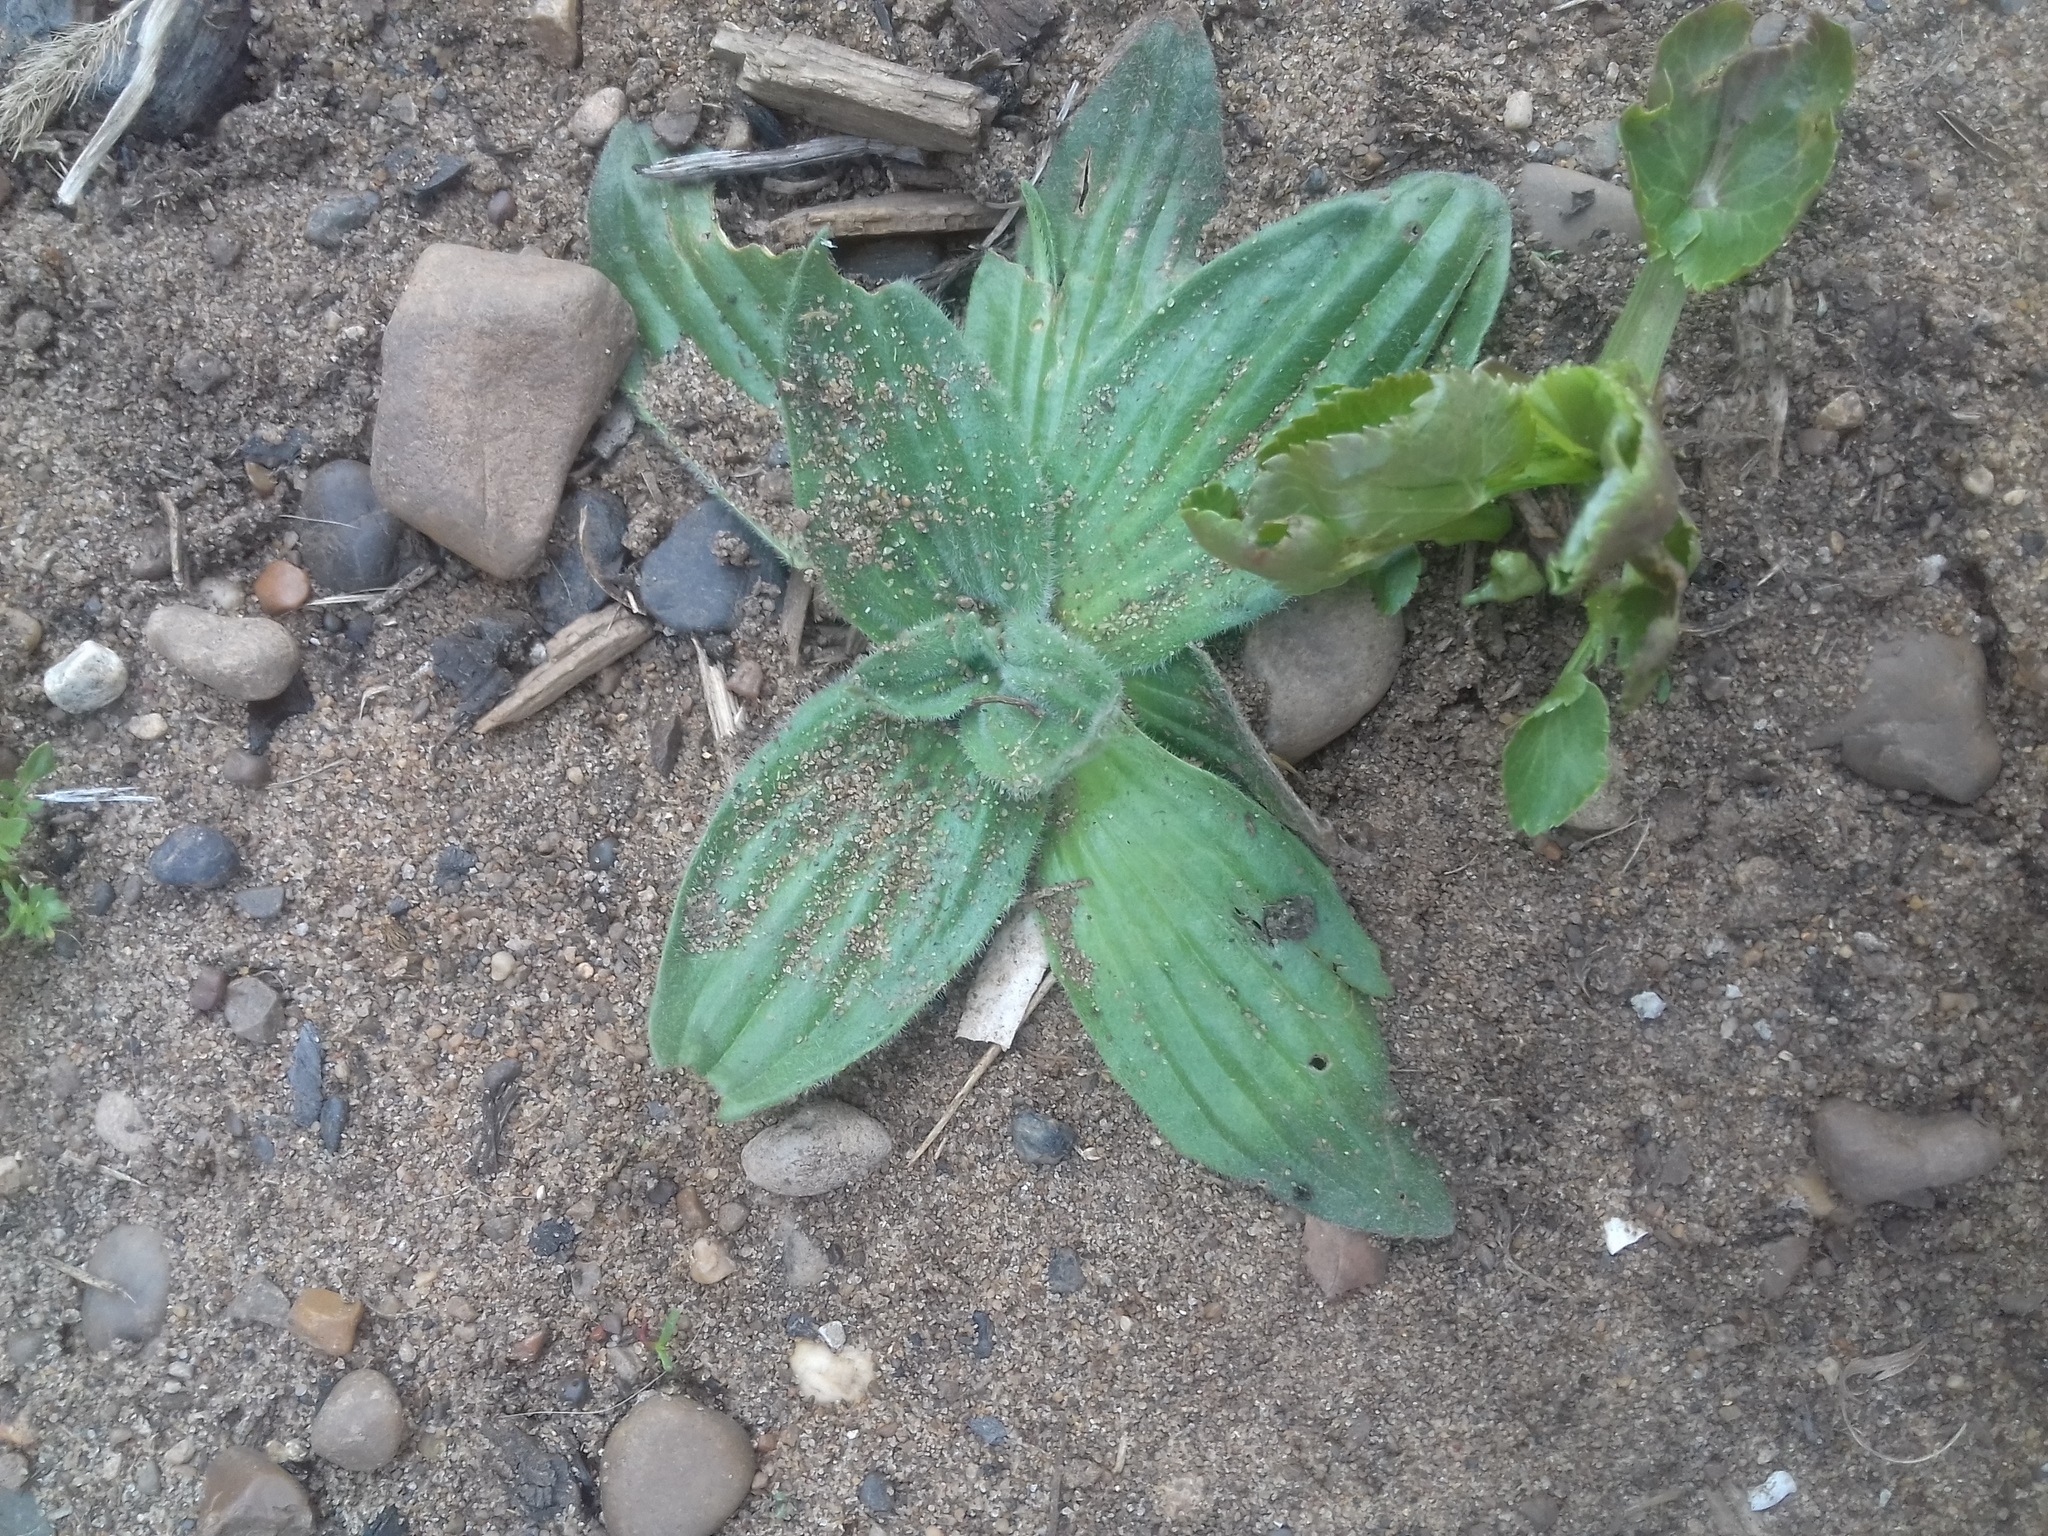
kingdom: Plantae
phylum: Tracheophyta
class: Magnoliopsida
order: Lamiales
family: Plantaginaceae
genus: Plantago
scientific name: Plantago media
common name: Hoary plantain
